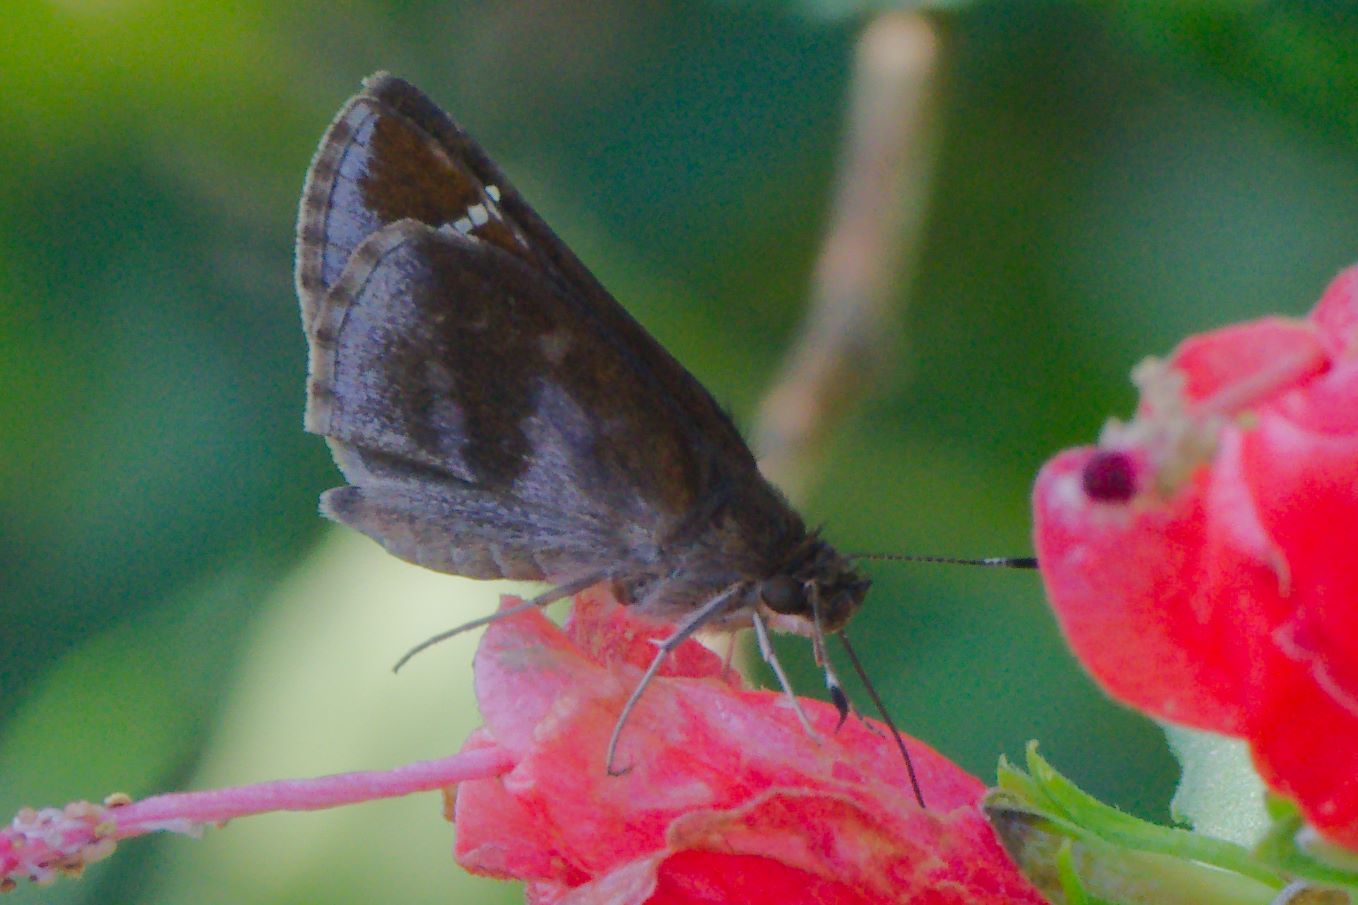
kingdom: Animalia
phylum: Arthropoda
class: Insecta
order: Lepidoptera
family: Hesperiidae
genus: Lerema
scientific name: Lerema accius
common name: Clouded skipper
